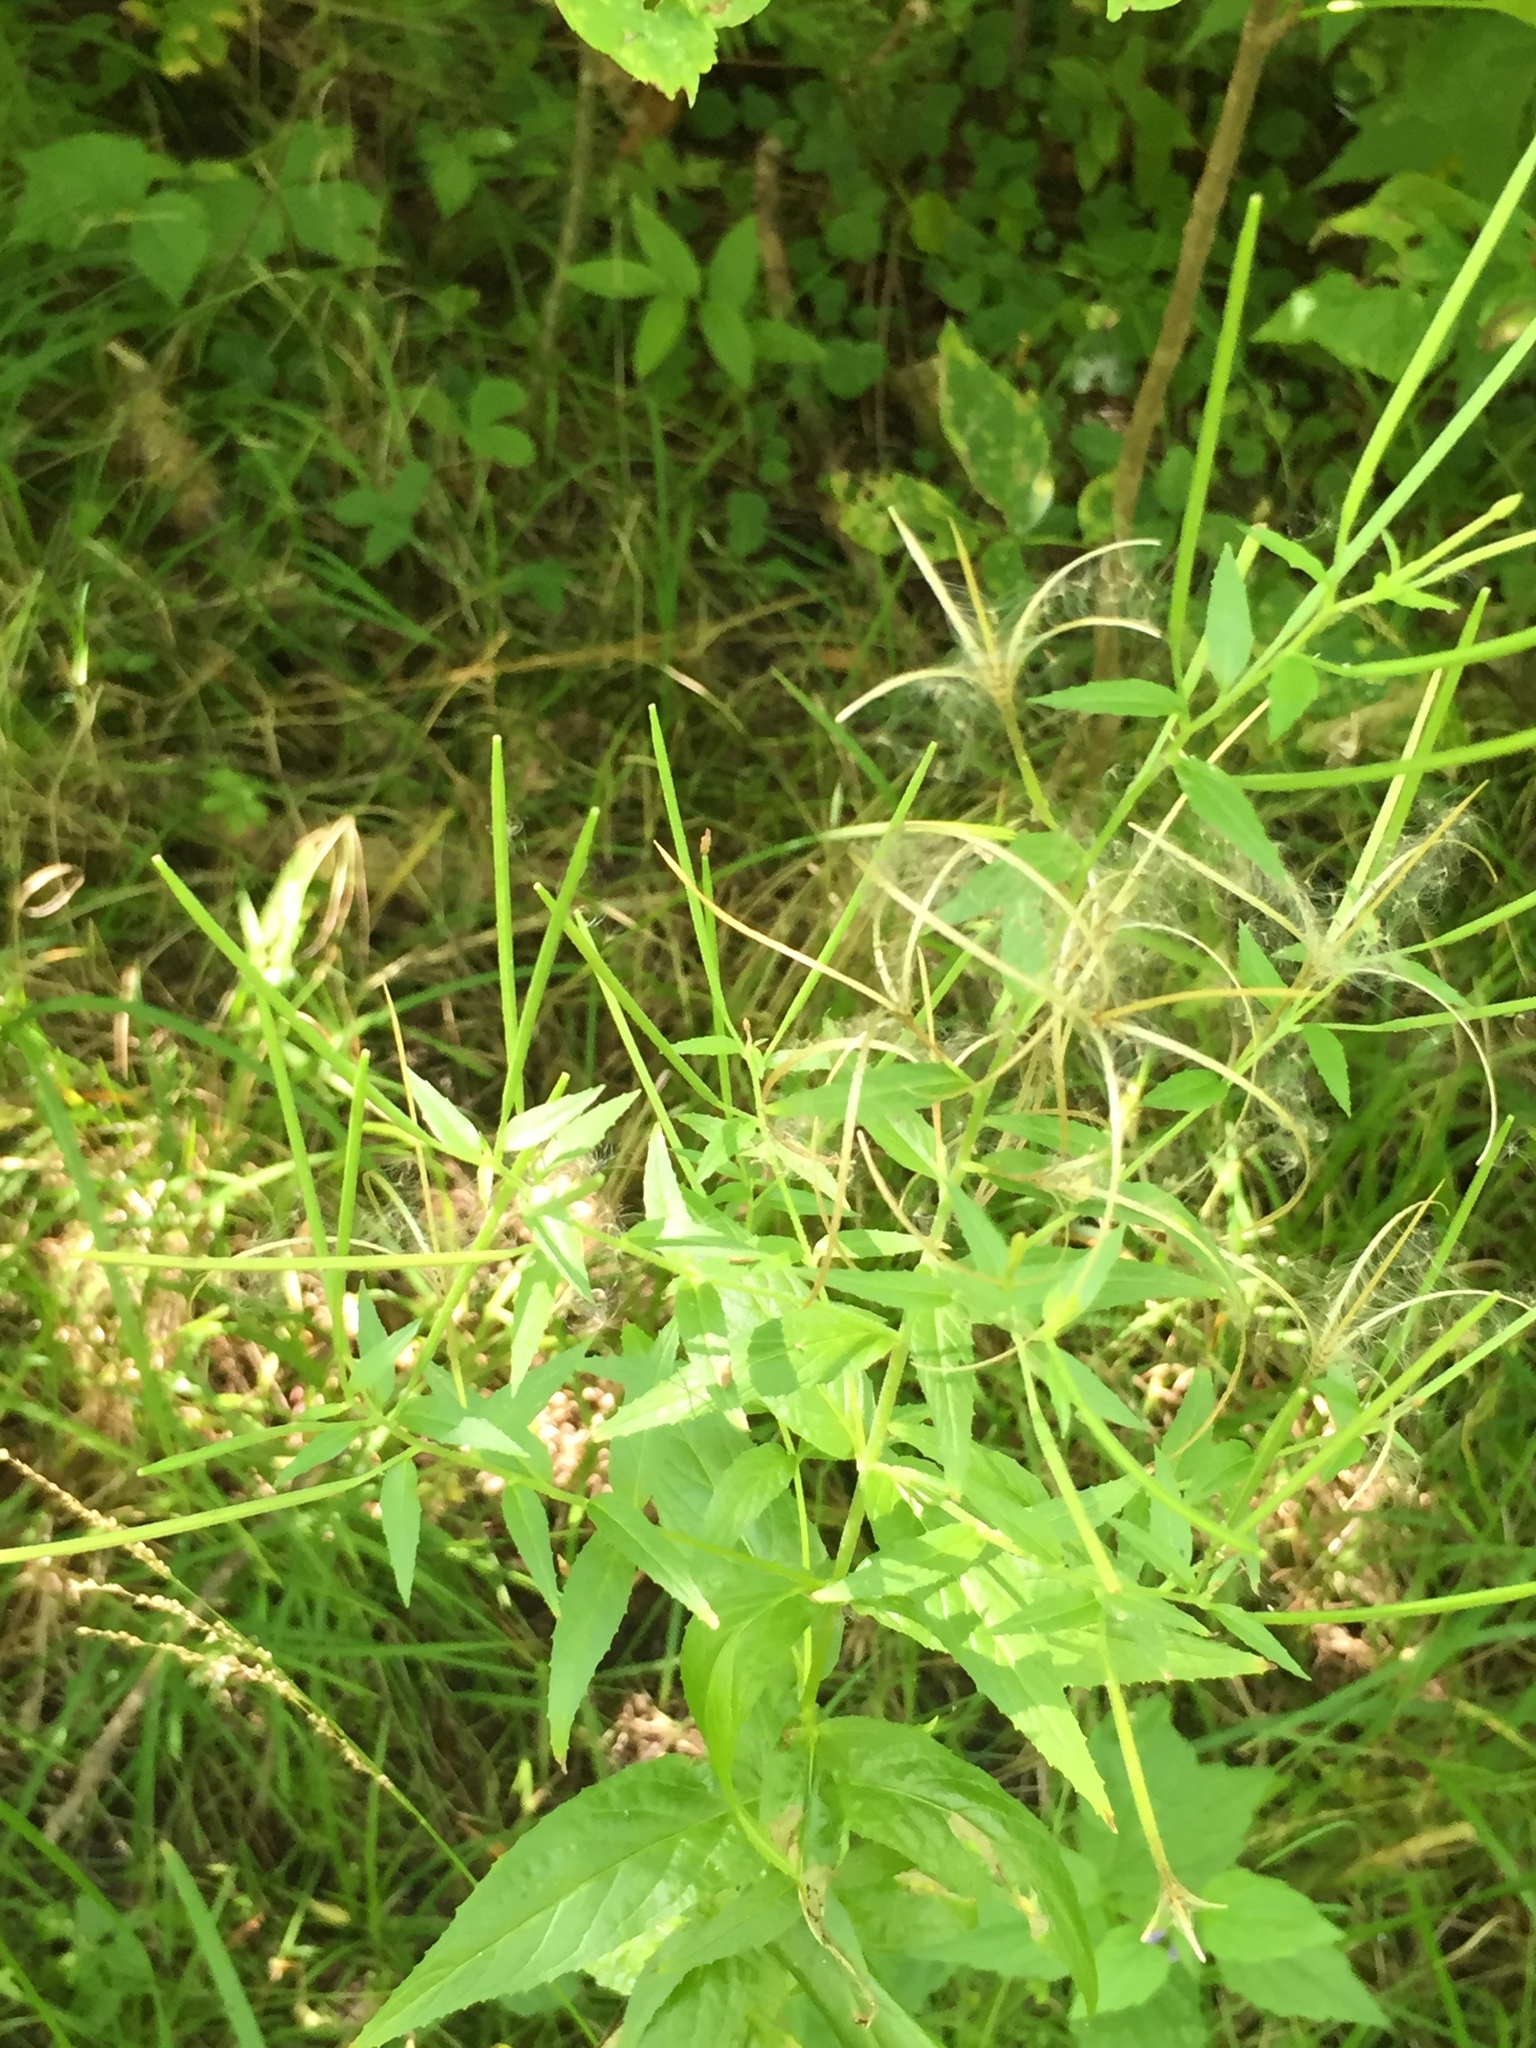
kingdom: Plantae
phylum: Tracheophyta
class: Magnoliopsida
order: Myrtales
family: Onagraceae
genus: Epilobium
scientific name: Epilobium ciliatum
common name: American willowherb
